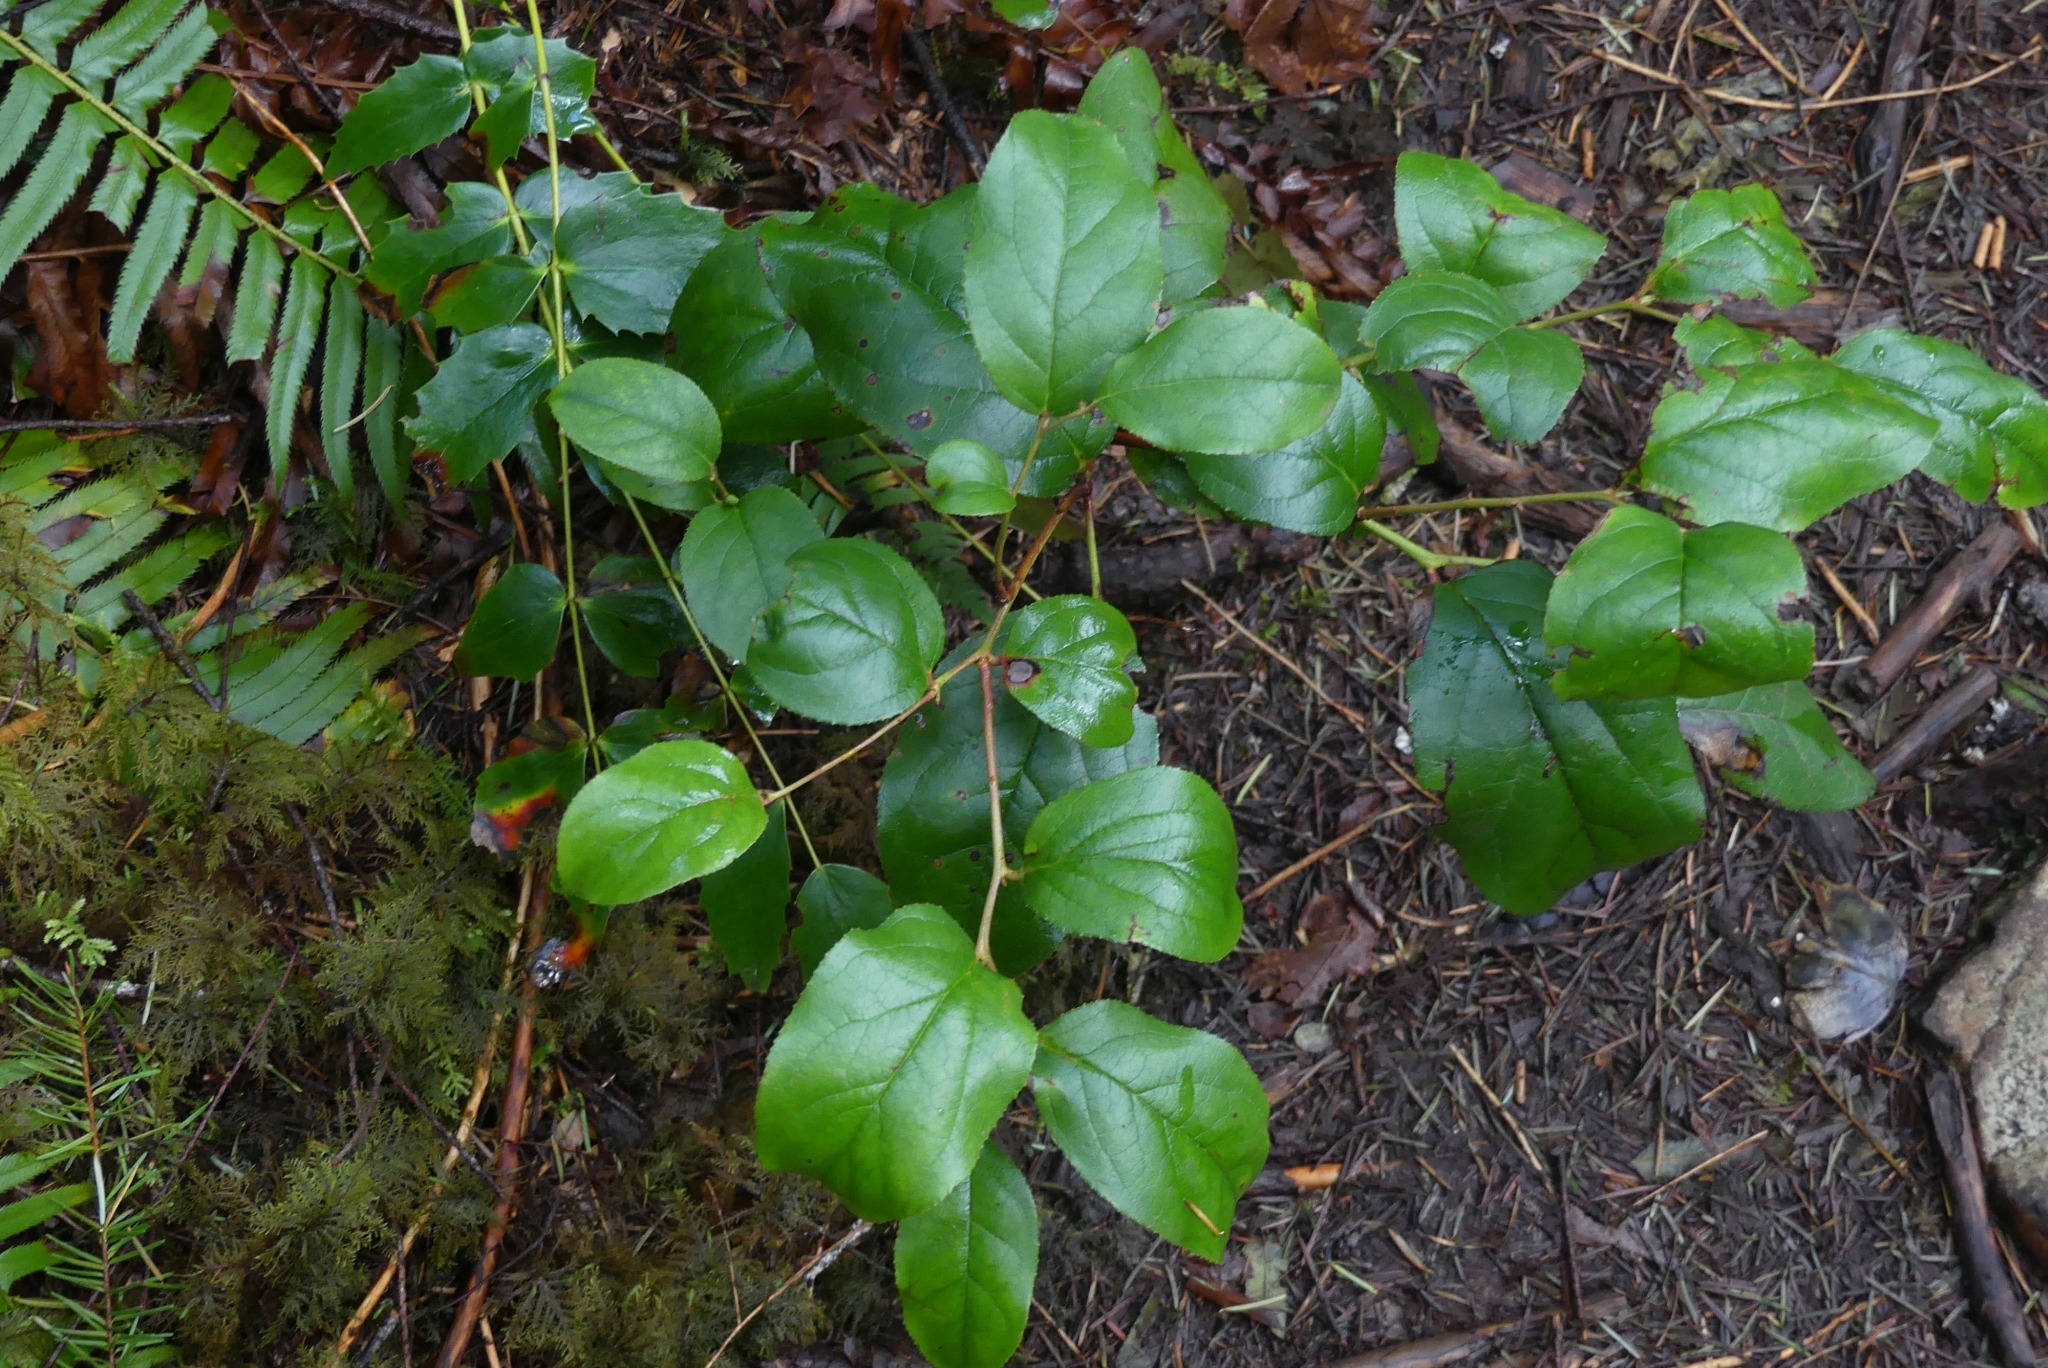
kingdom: Plantae
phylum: Tracheophyta
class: Magnoliopsida
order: Ericales
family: Ericaceae
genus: Gaultheria
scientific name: Gaultheria shallon
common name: Shallon
